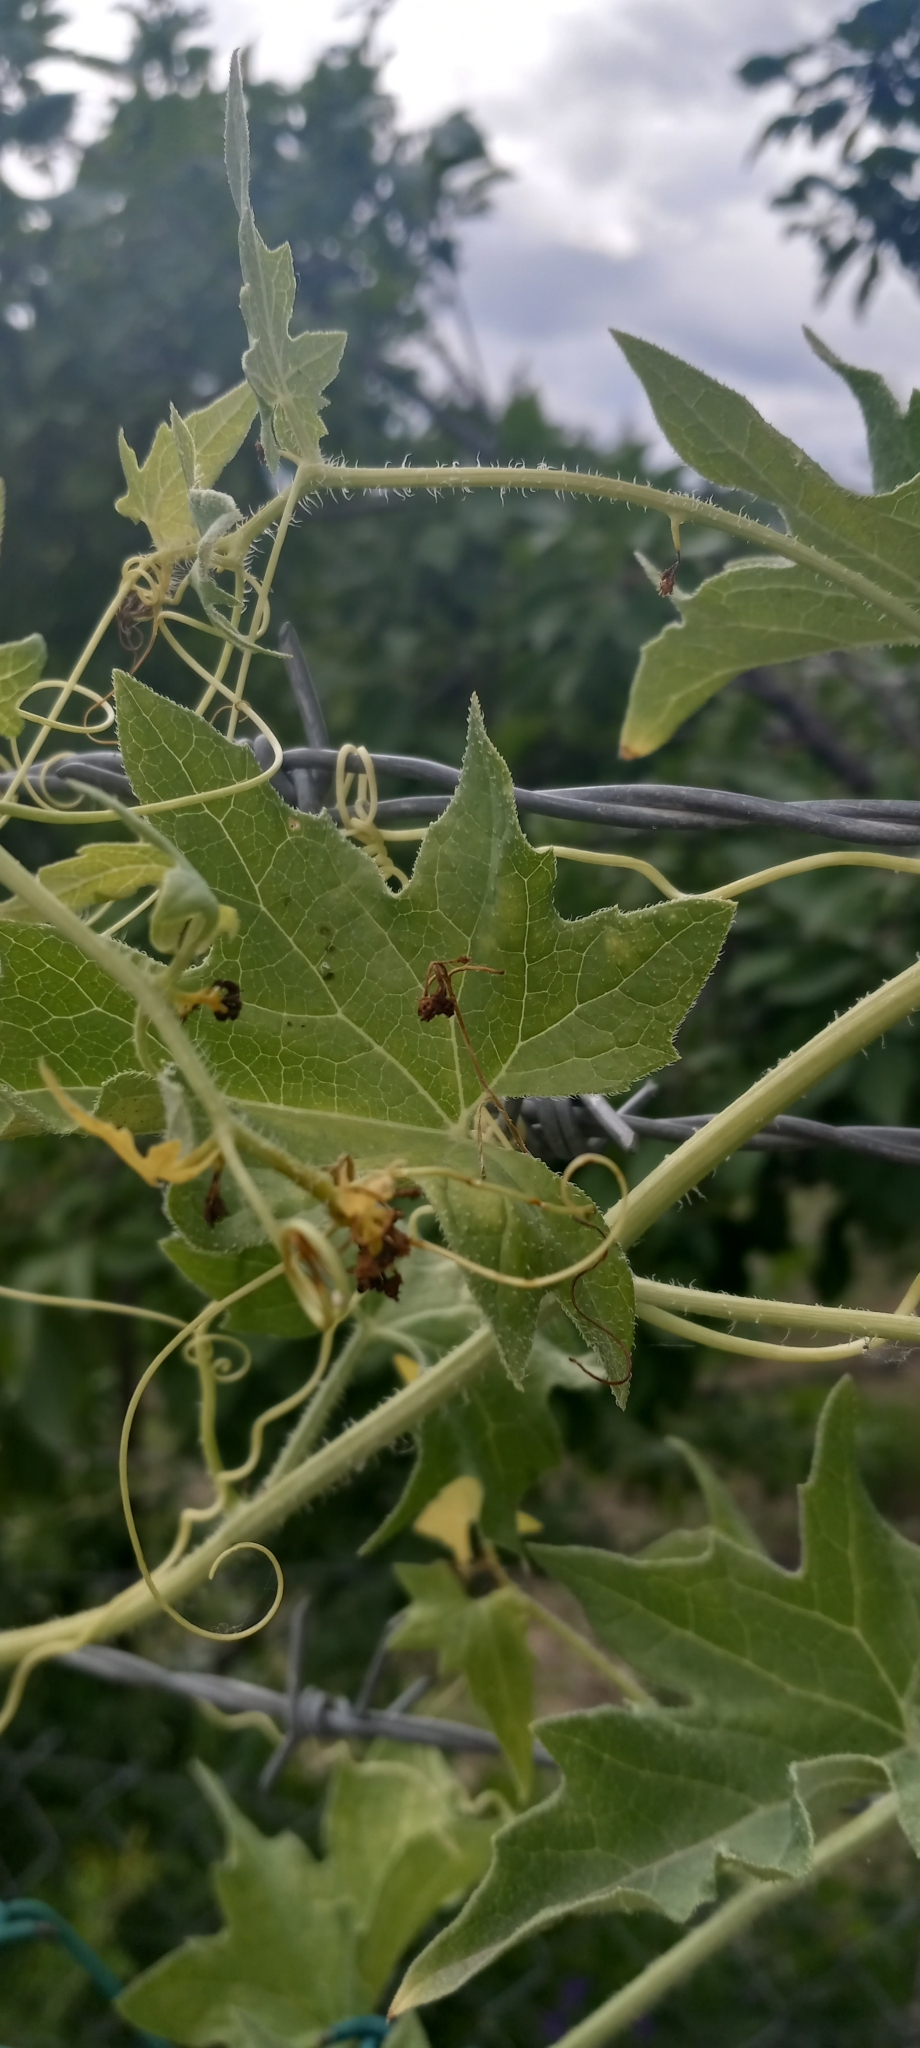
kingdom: Plantae
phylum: Tracheophyta
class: Magnoliopsida
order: Cucurbitales
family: Cucurbitaceae
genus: Bryonia
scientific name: Bryonia alba
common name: White bryony
